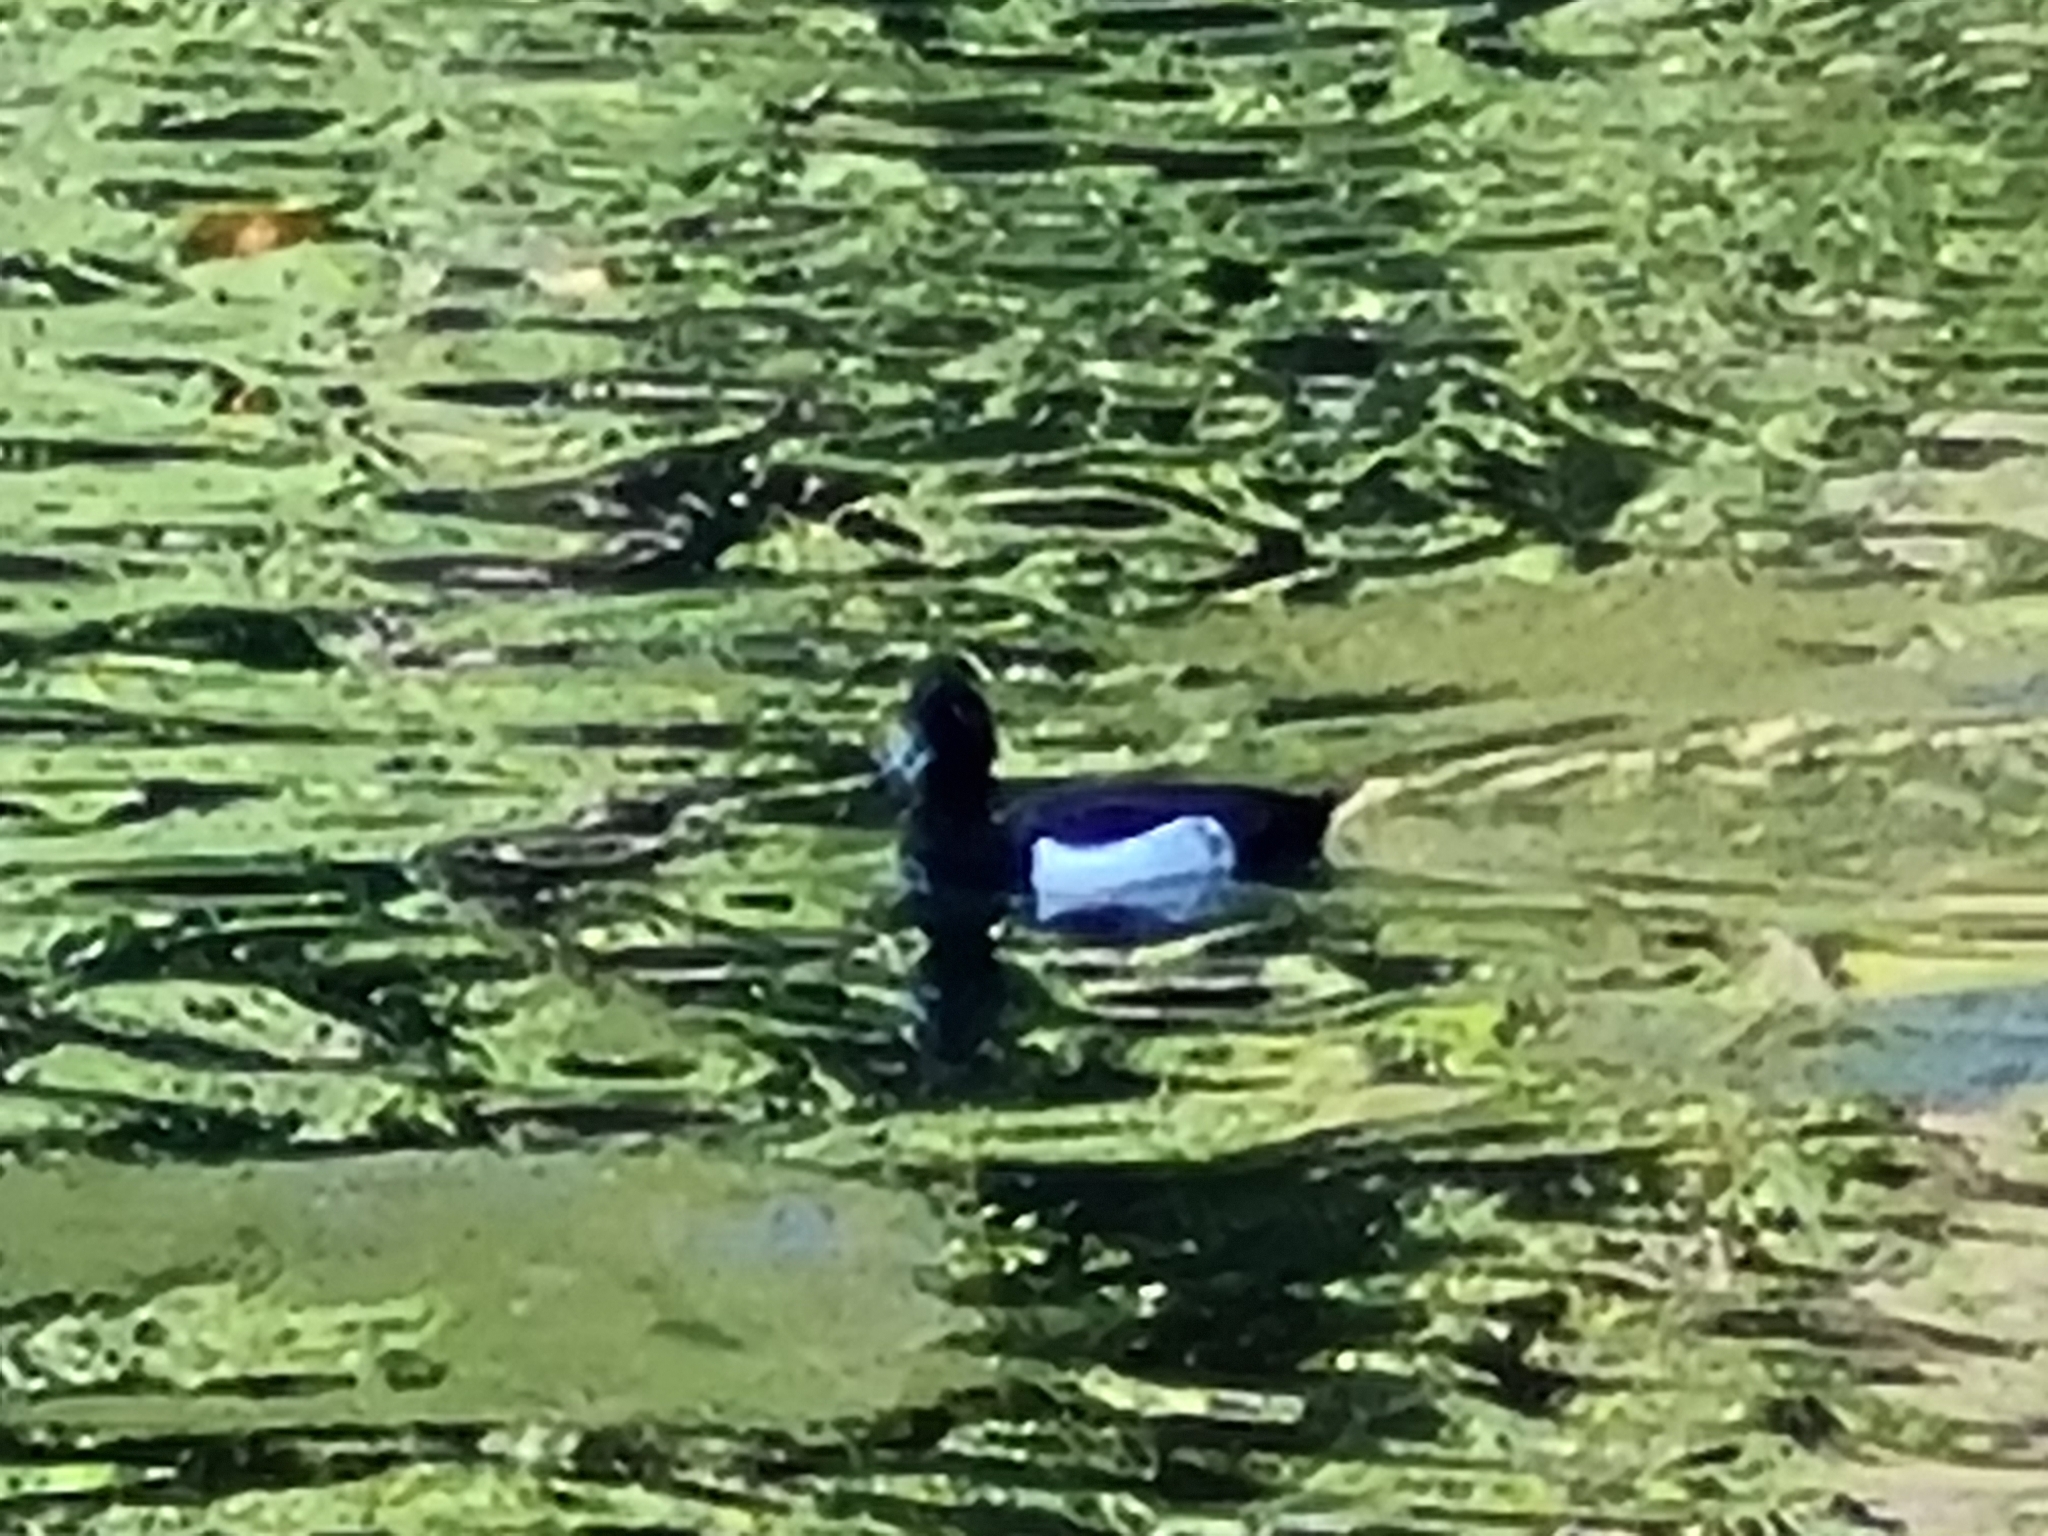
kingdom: Animalia
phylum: Chordata
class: Aves
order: Anseriformes
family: Anatidae
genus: Aythya
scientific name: Aythya fuligula
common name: Tufted duck
